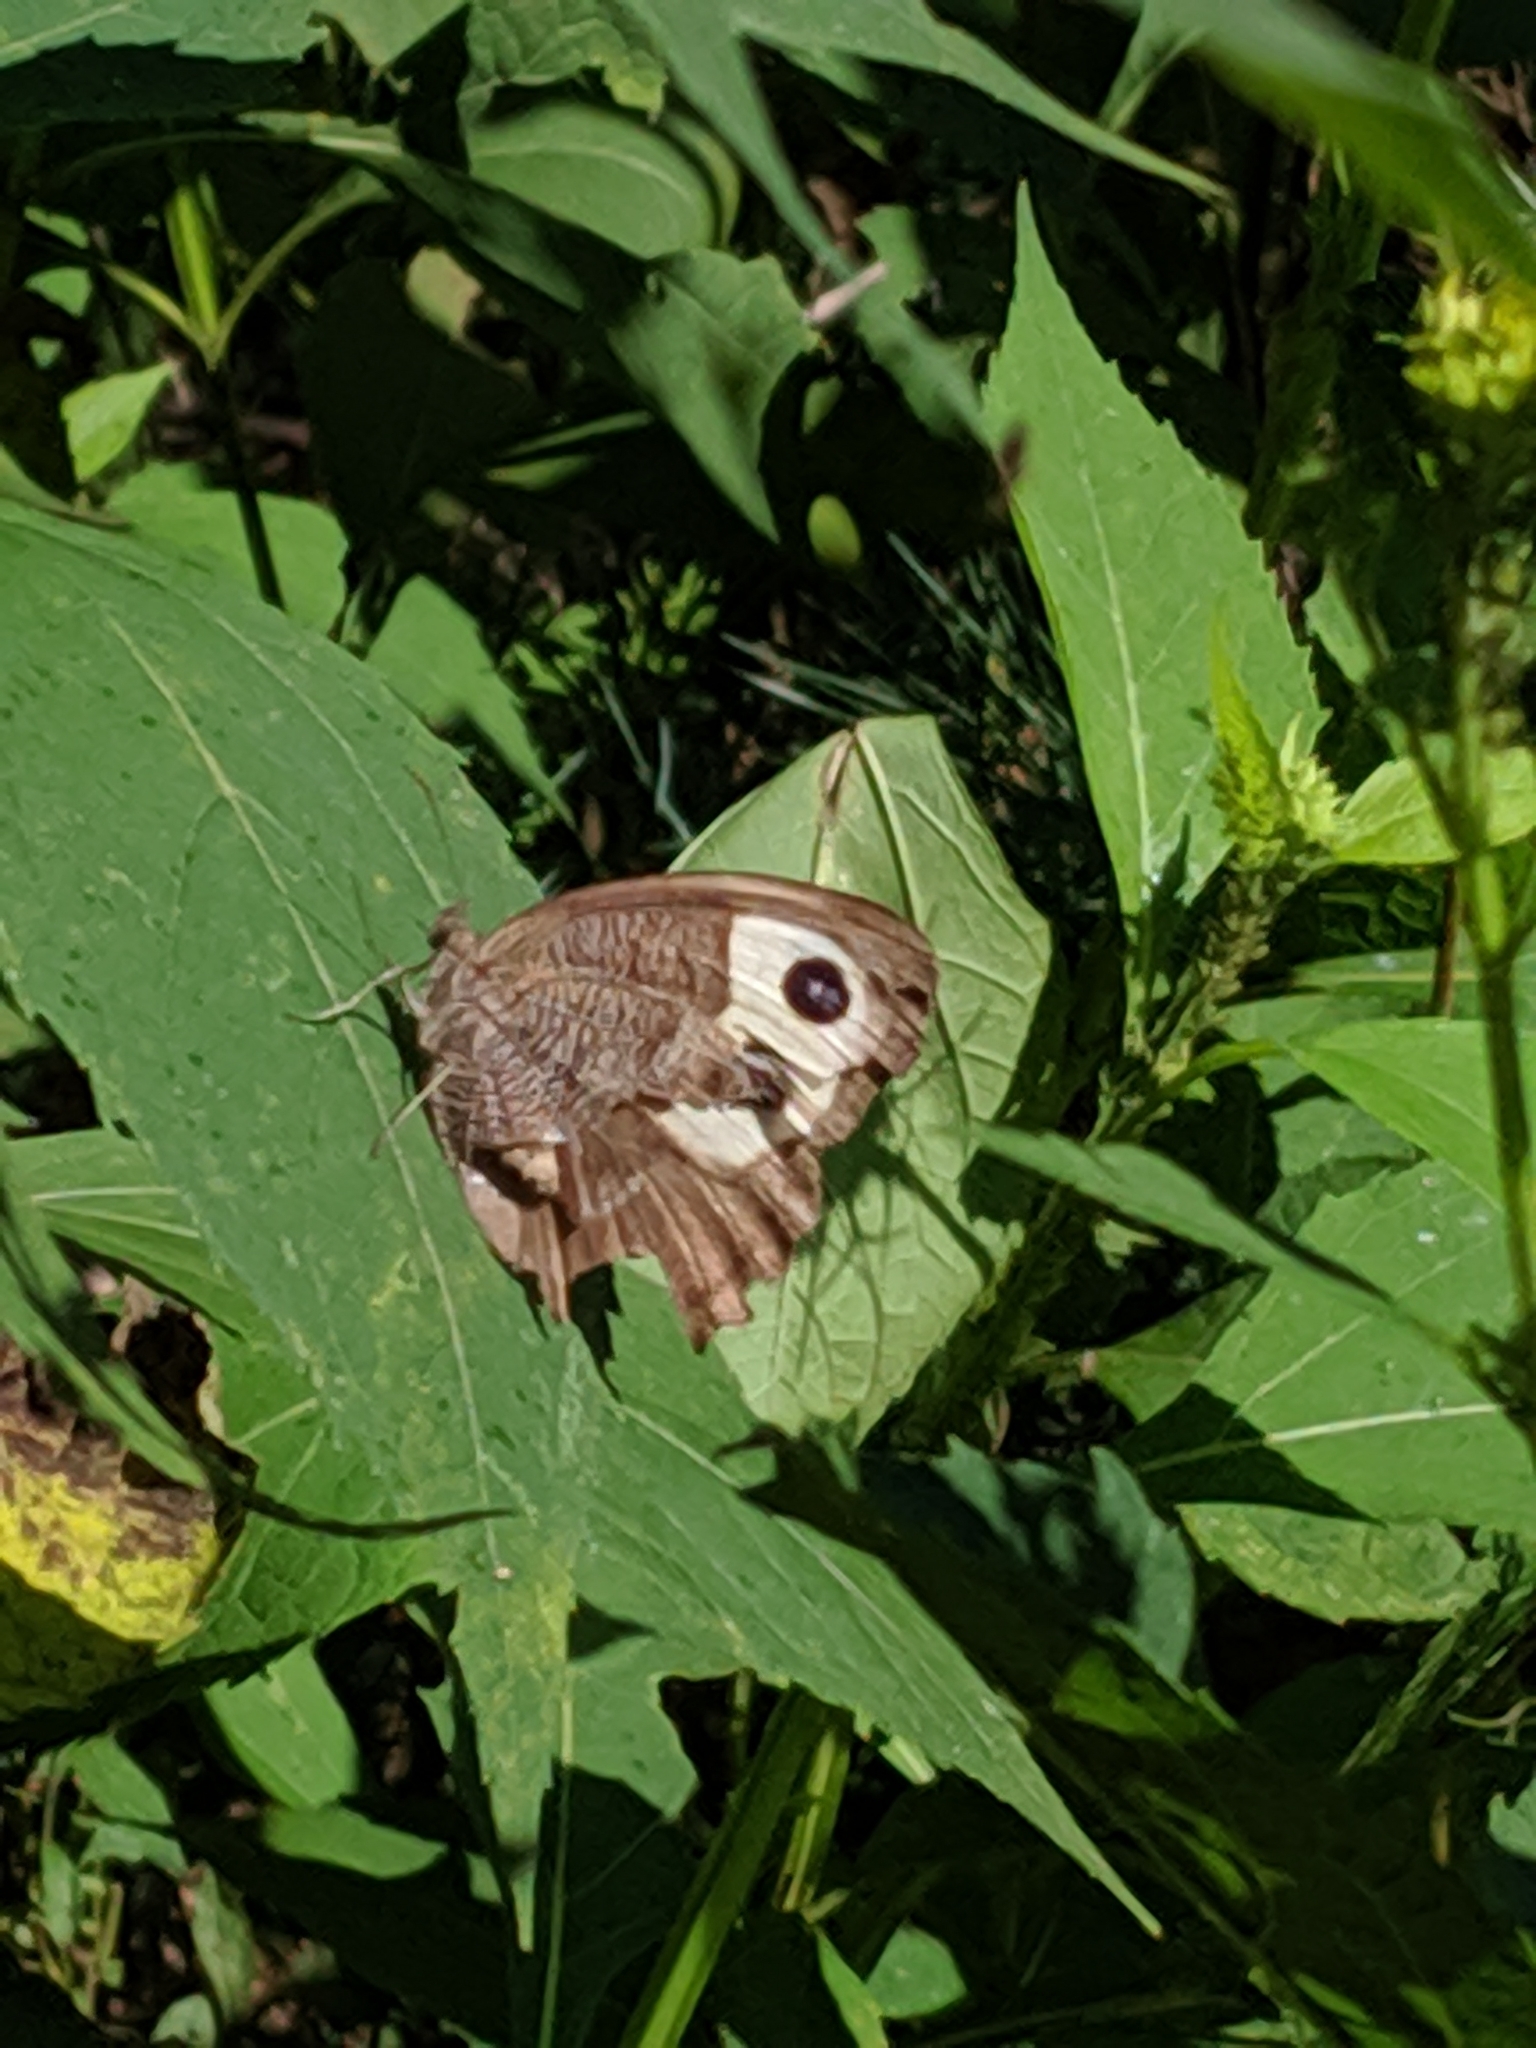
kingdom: Animalia
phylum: Arthropoda
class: Insecta
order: Lepidoptera
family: Nymphalidae
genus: Cercyonis
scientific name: Cercyonis pegala
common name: Common wood-nymph
